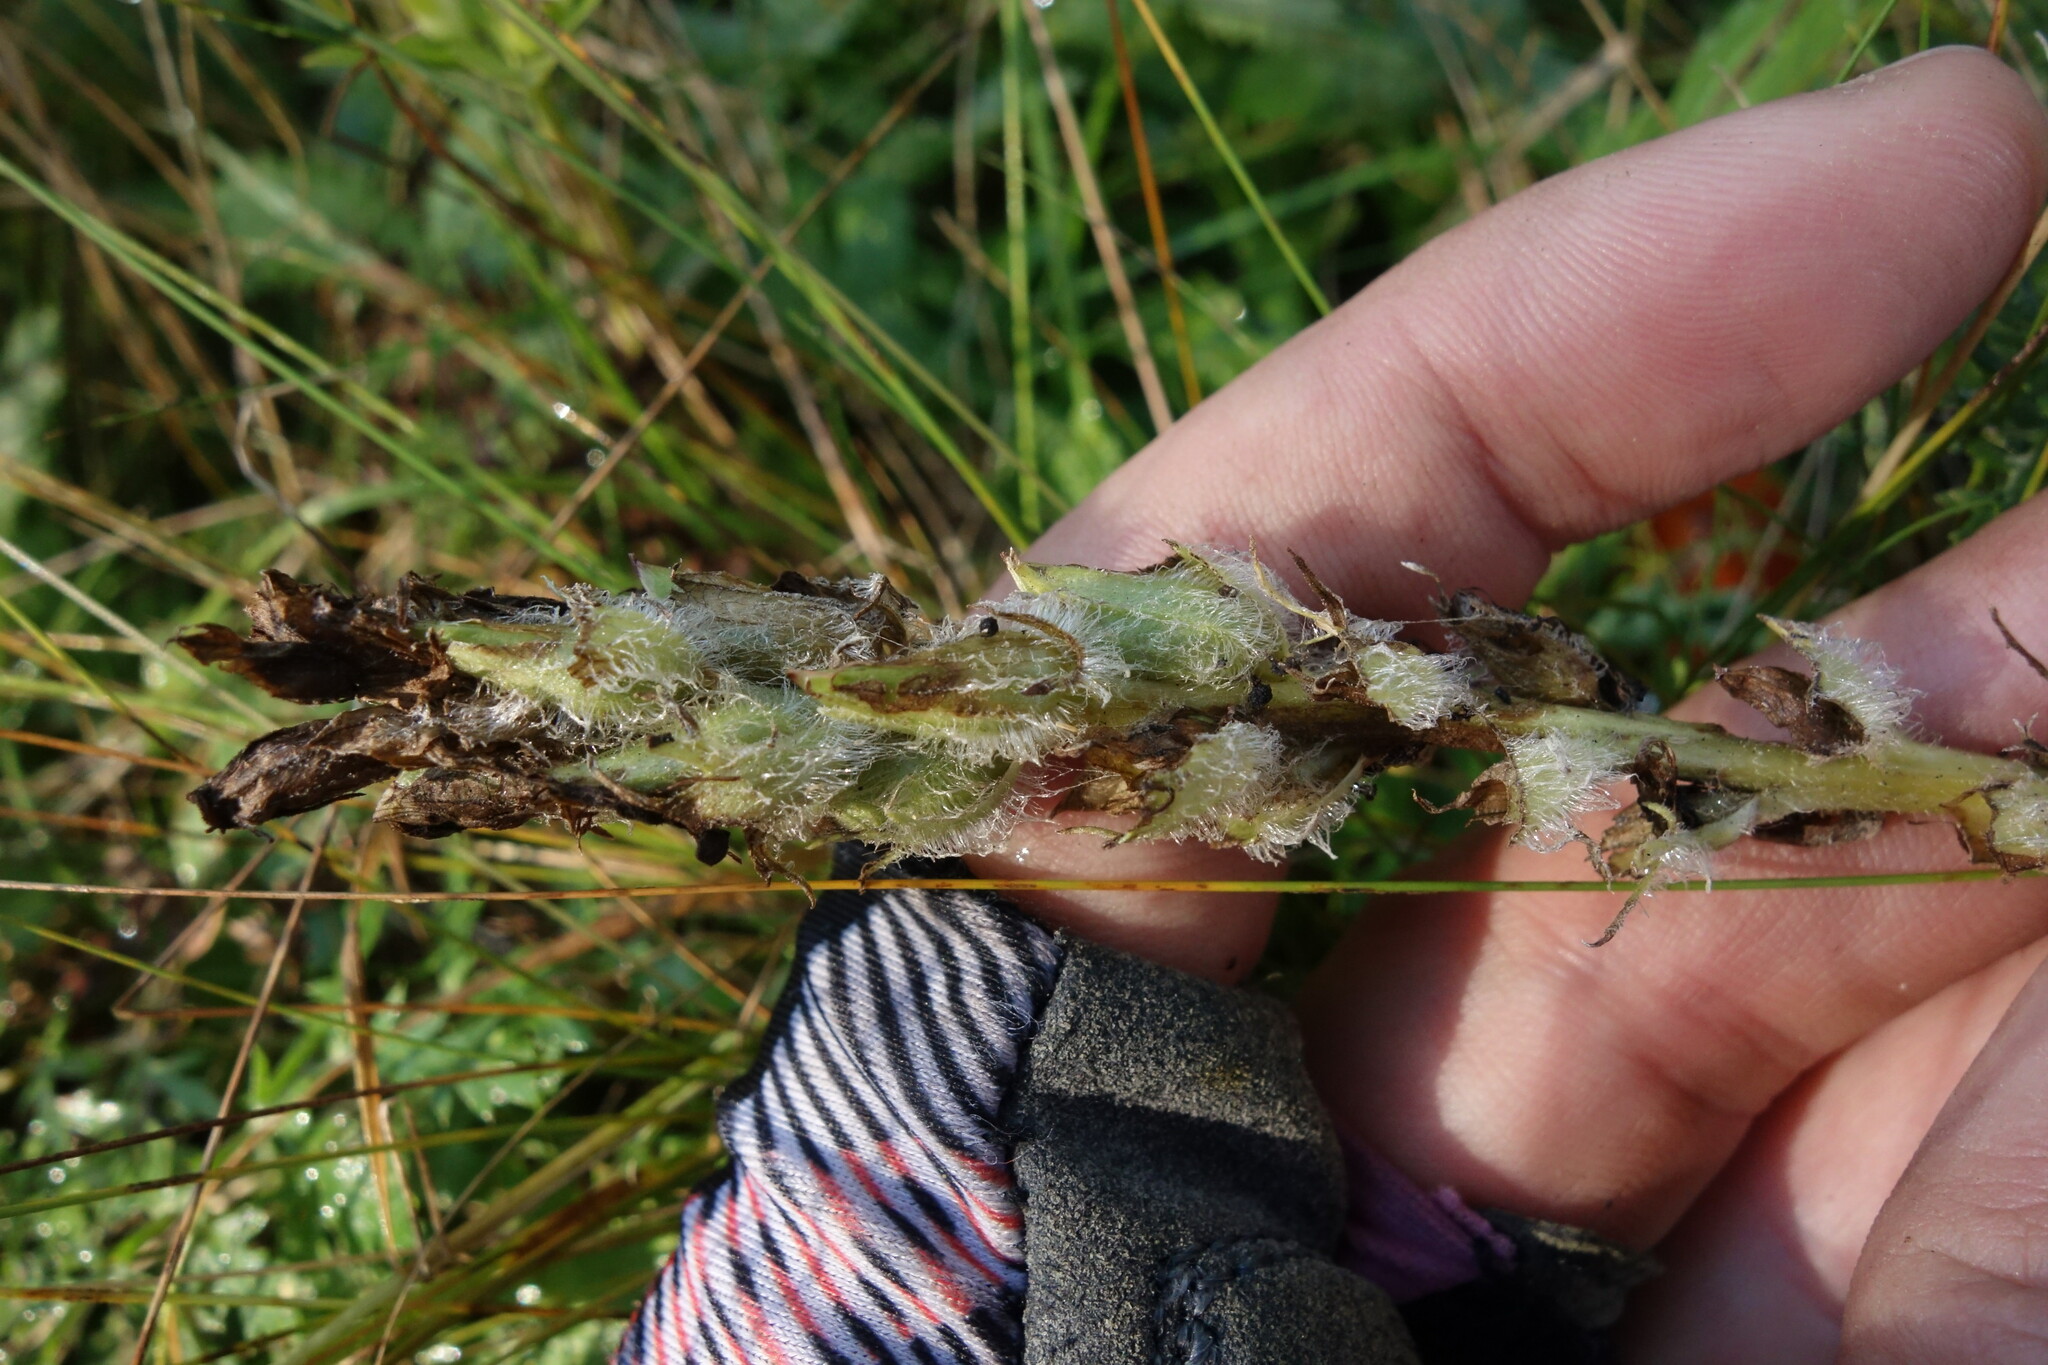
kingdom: Plantae
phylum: Tracheophyta
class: Magnoliopsida
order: Lamiales
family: Orobanchaceae
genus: Pedicularis
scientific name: Pedicularis rubens
